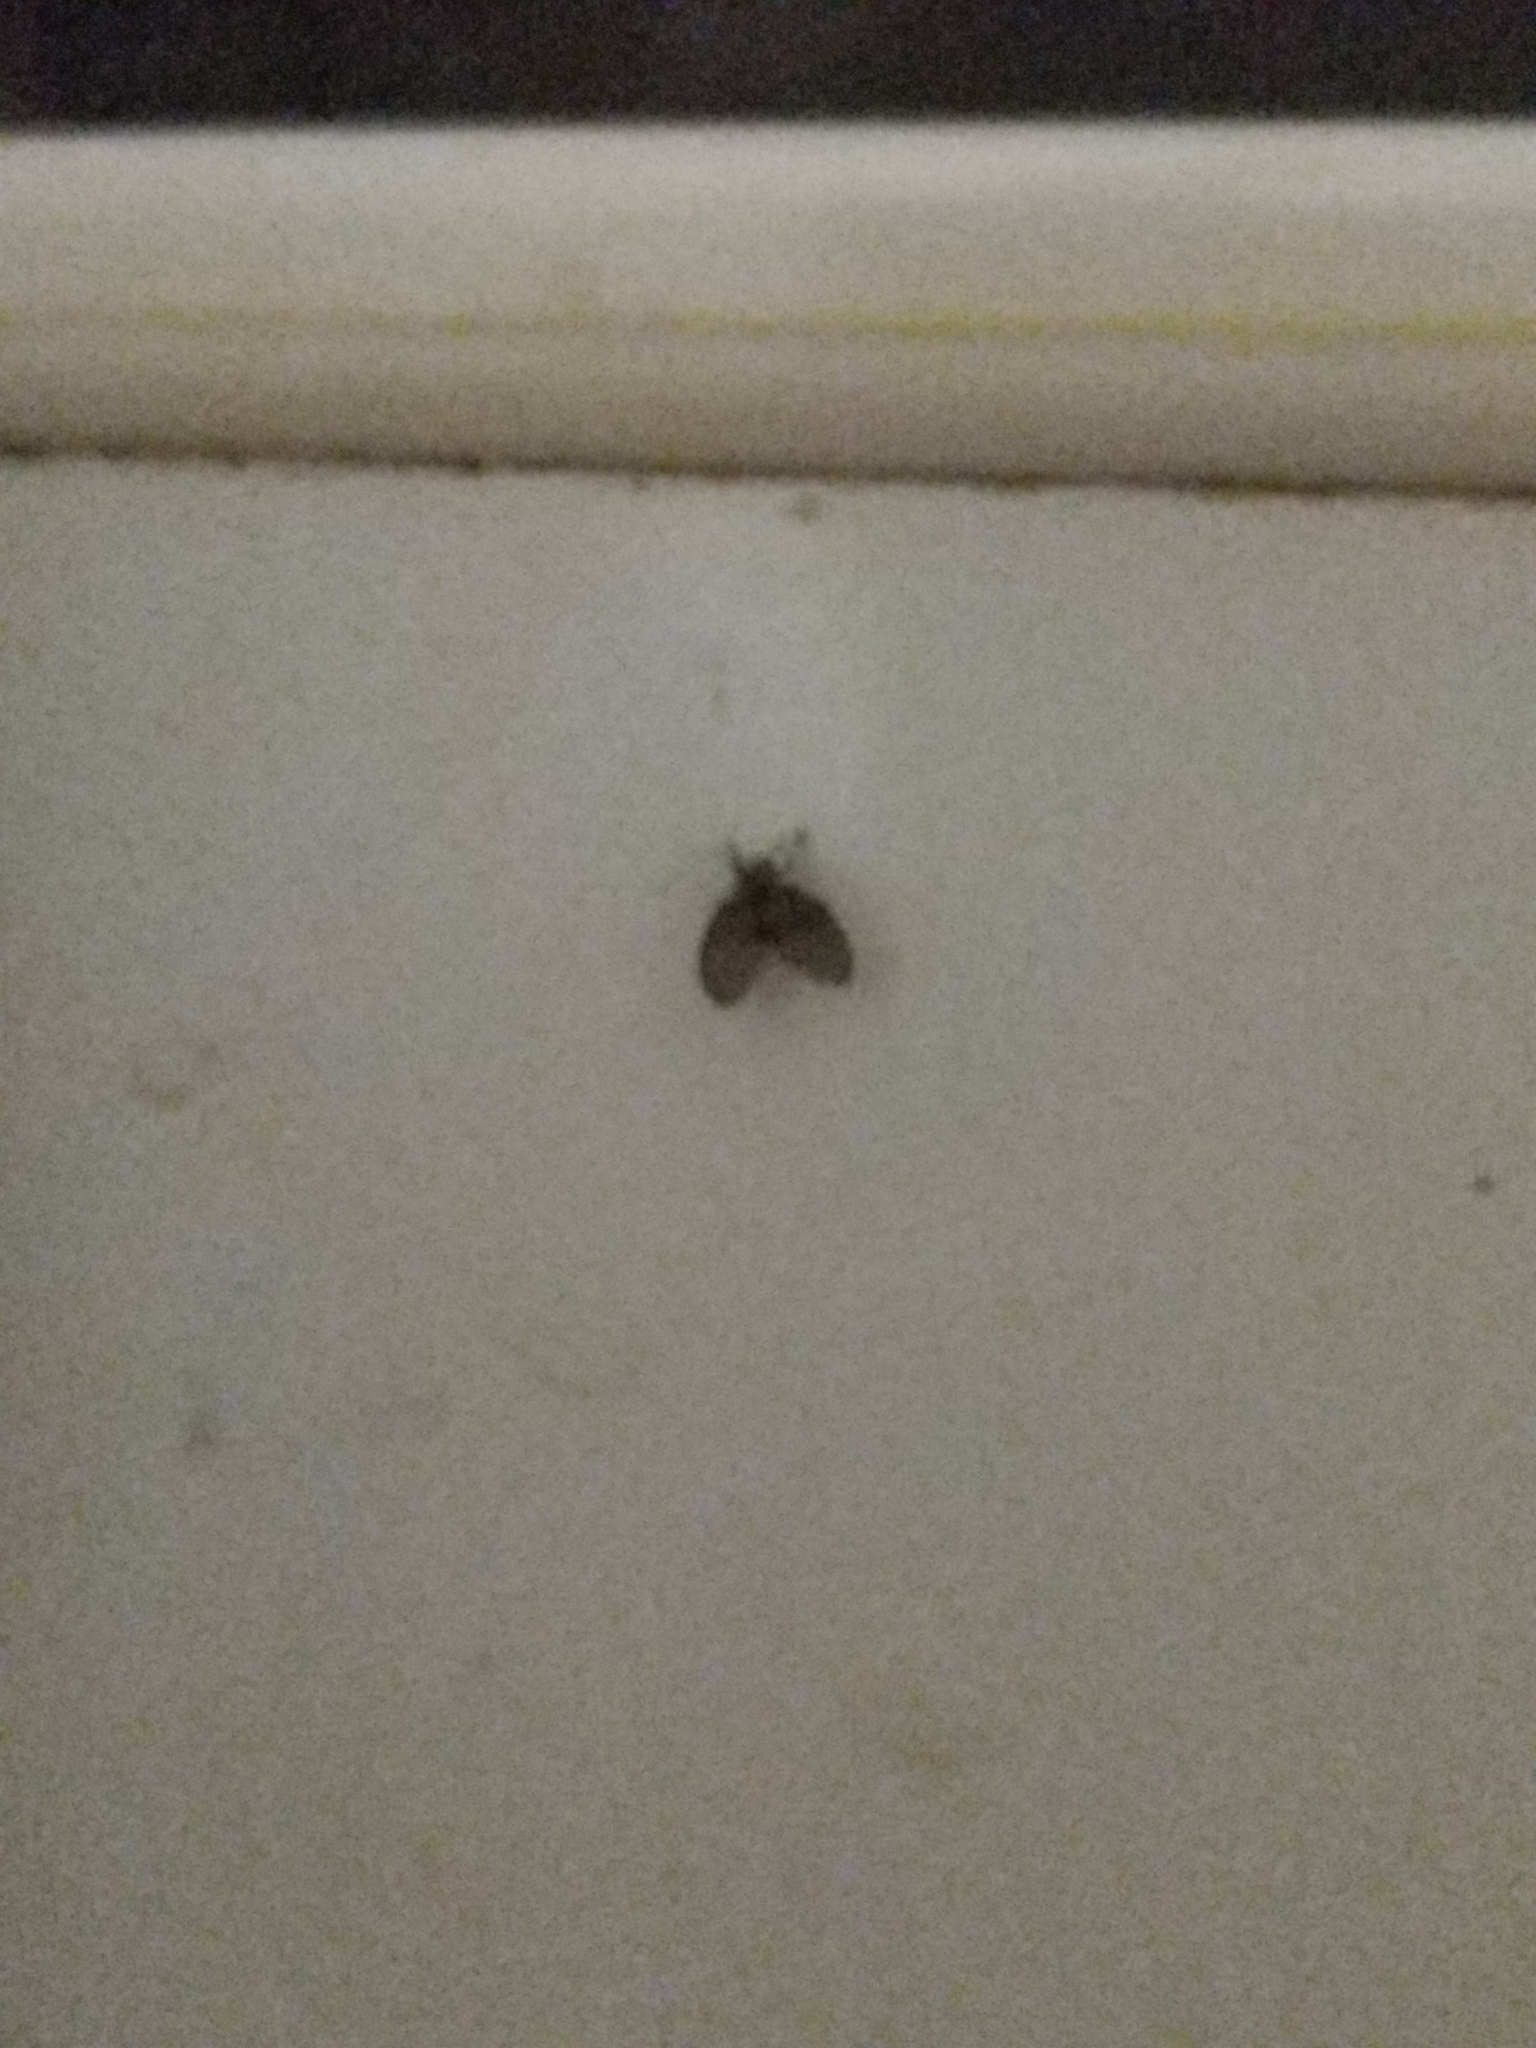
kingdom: Animalia
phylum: Arthropoda
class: Insecta
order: Diptera
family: Psychodidae
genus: Clogmia
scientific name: Clogmia albipunctatus
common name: White-spotted moth fly
